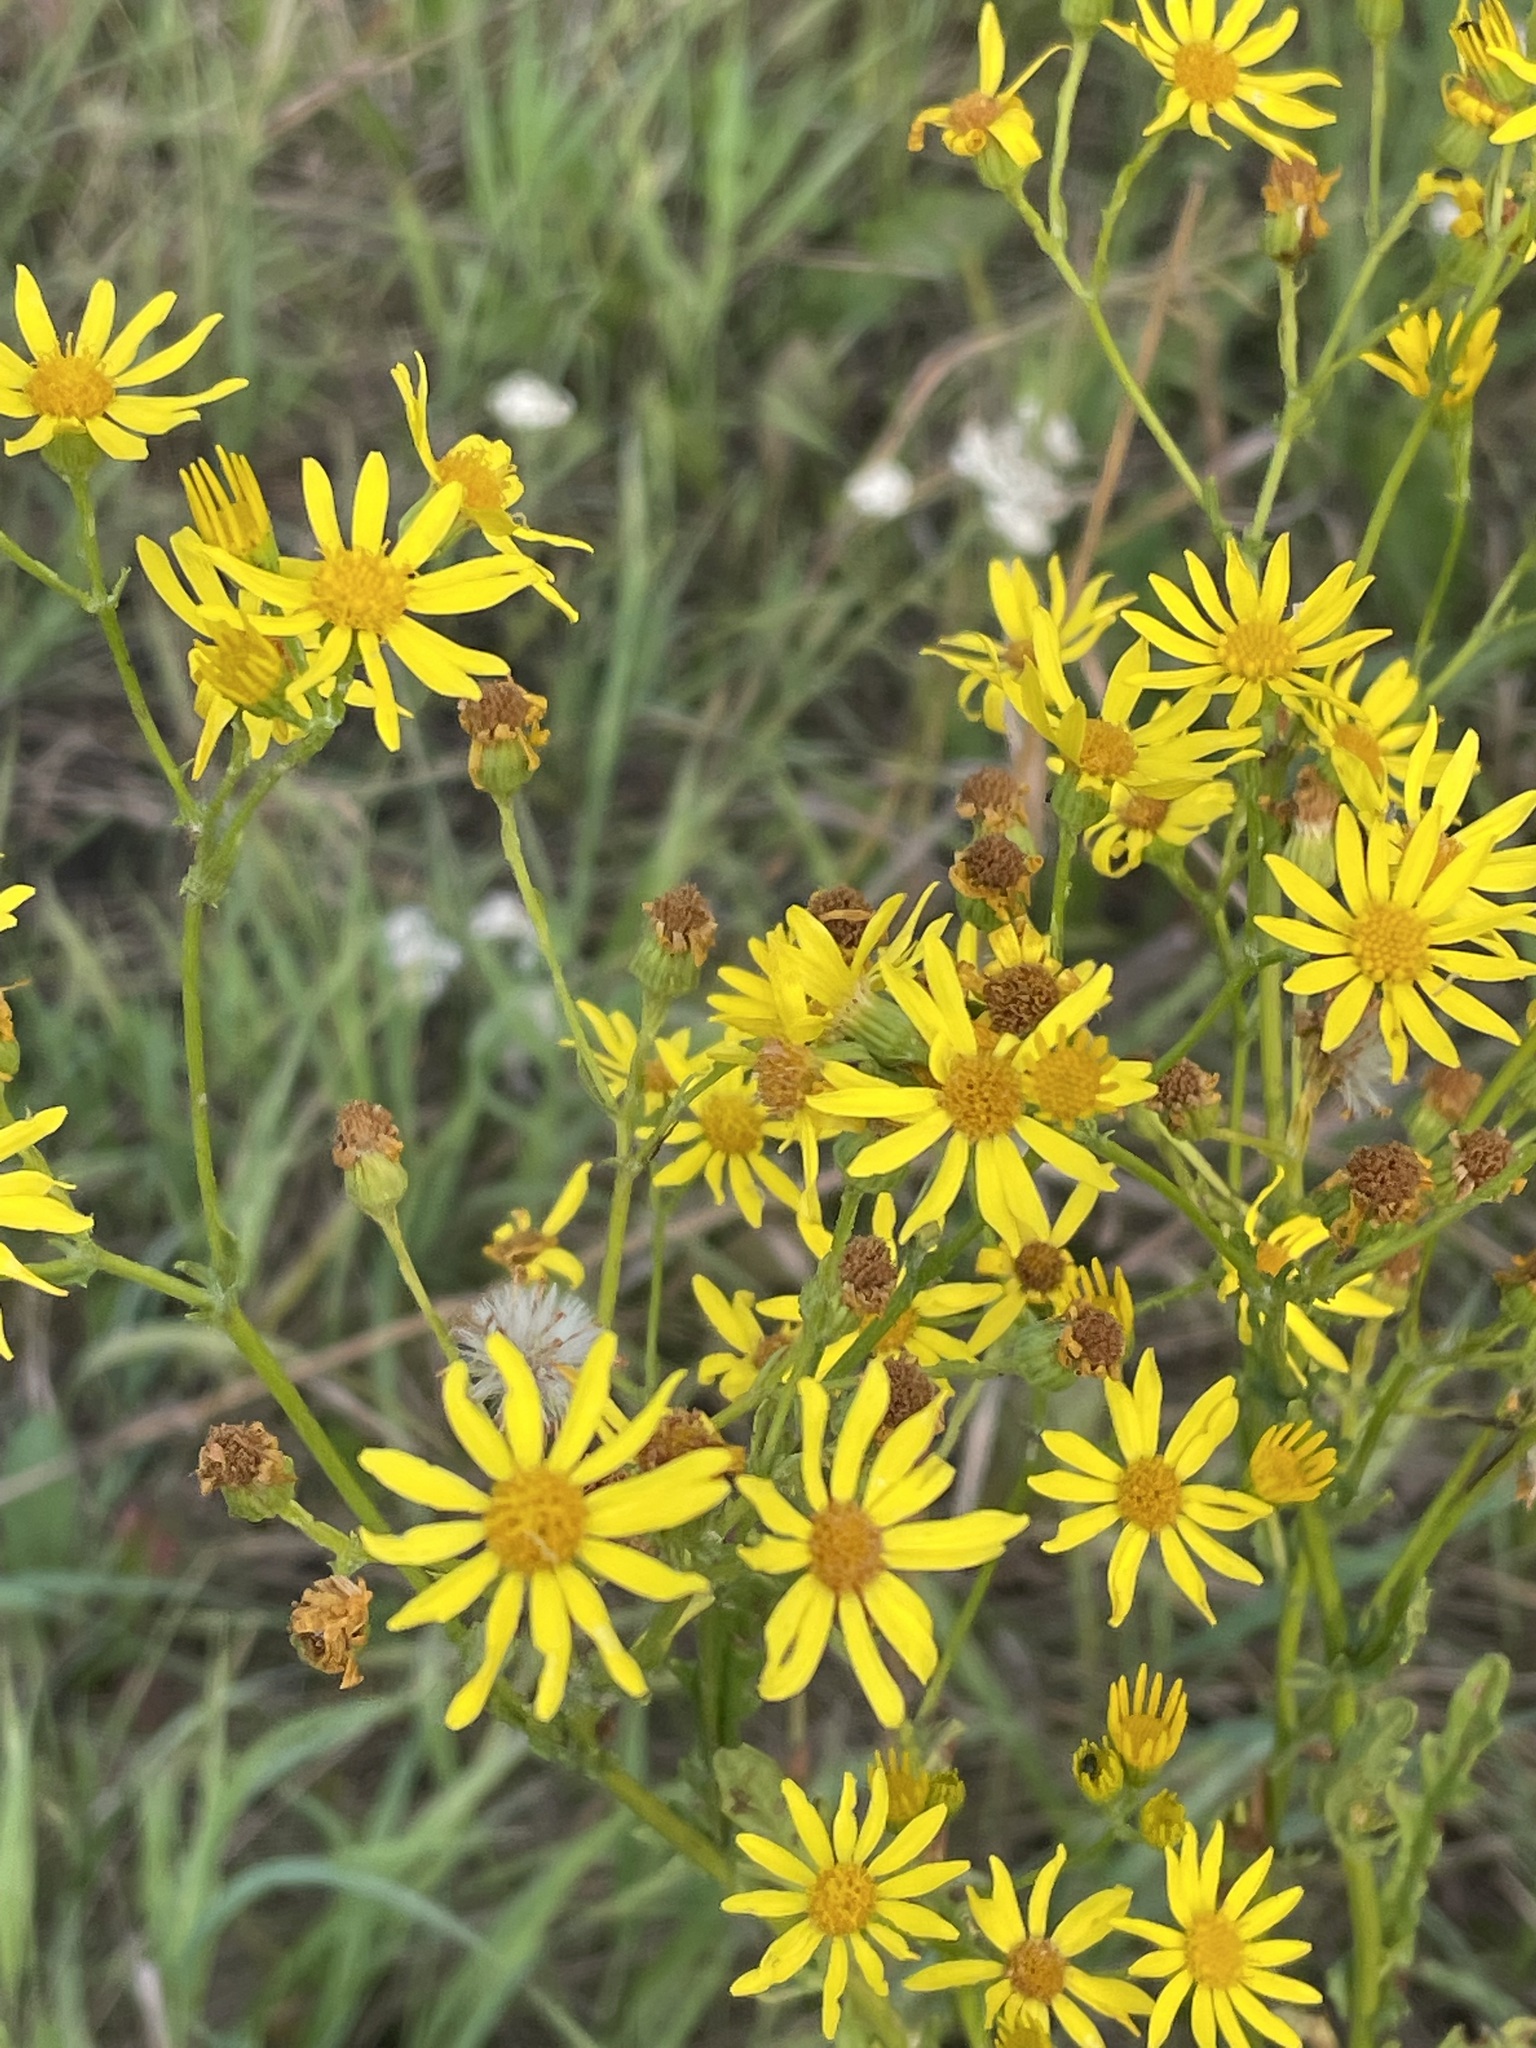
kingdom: Plantae
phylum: Tracheophyta
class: Magnoliopsida
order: Asterales
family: Asteraceae
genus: Jacobaea
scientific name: Jacobaea vulgaris
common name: Stinking willie
